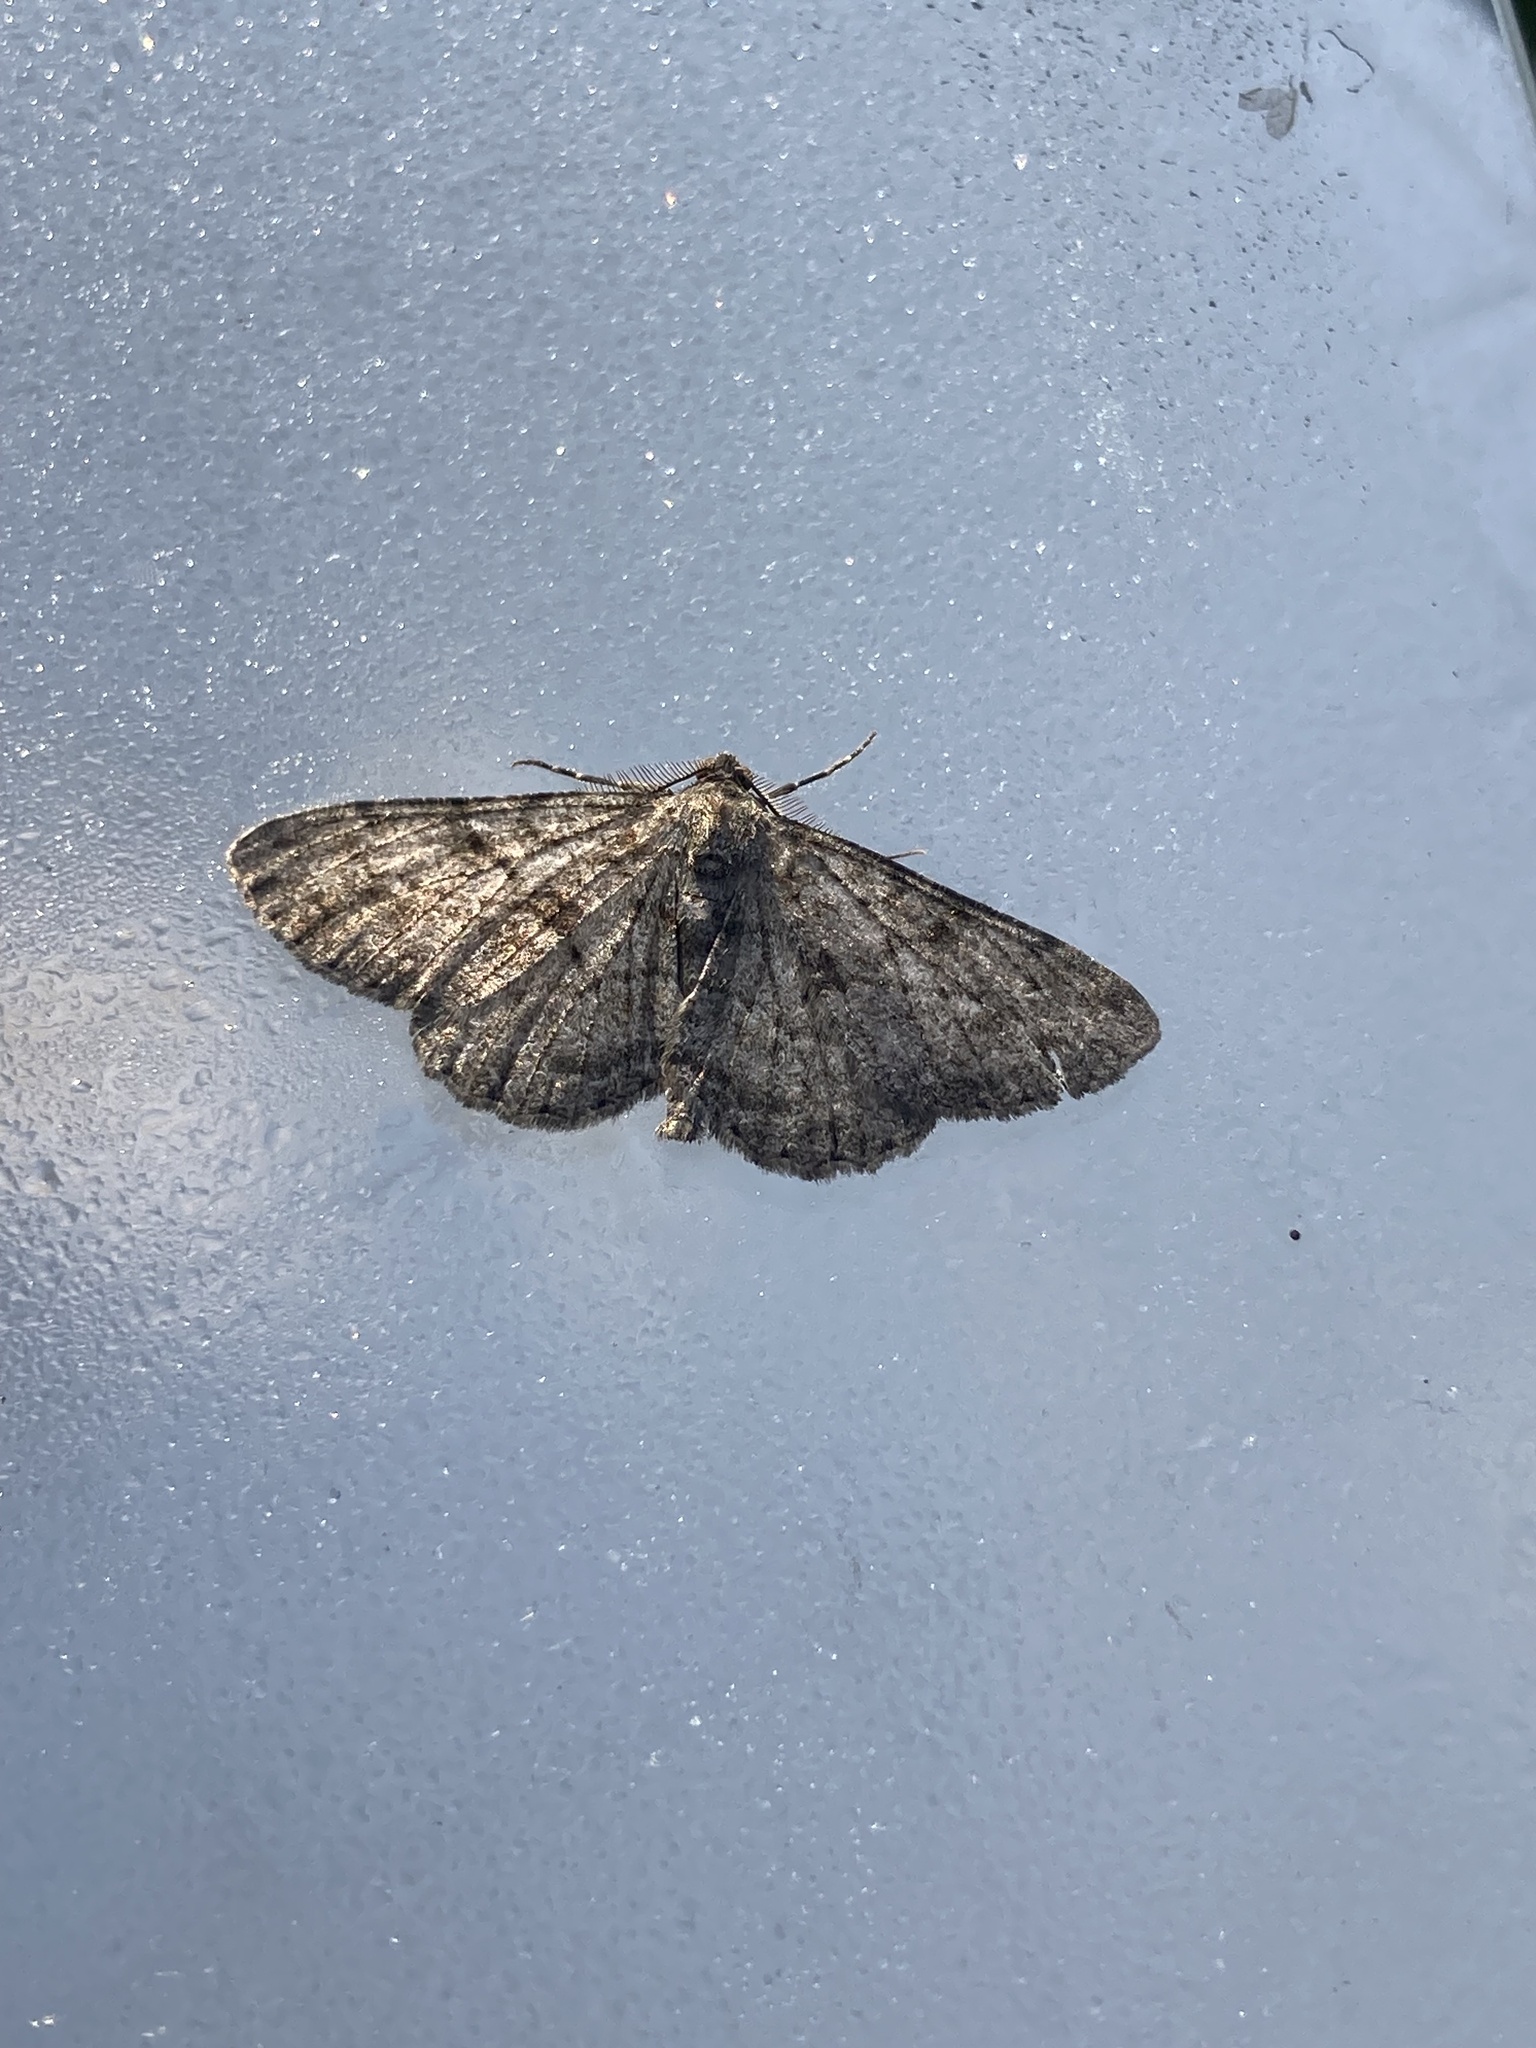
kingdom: Animalia
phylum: Arthropoda
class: Insecta
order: Lepidoptera
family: Geometridae
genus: Peribatodes
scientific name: Peribatodes rhomboidaria
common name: Willow beauty
